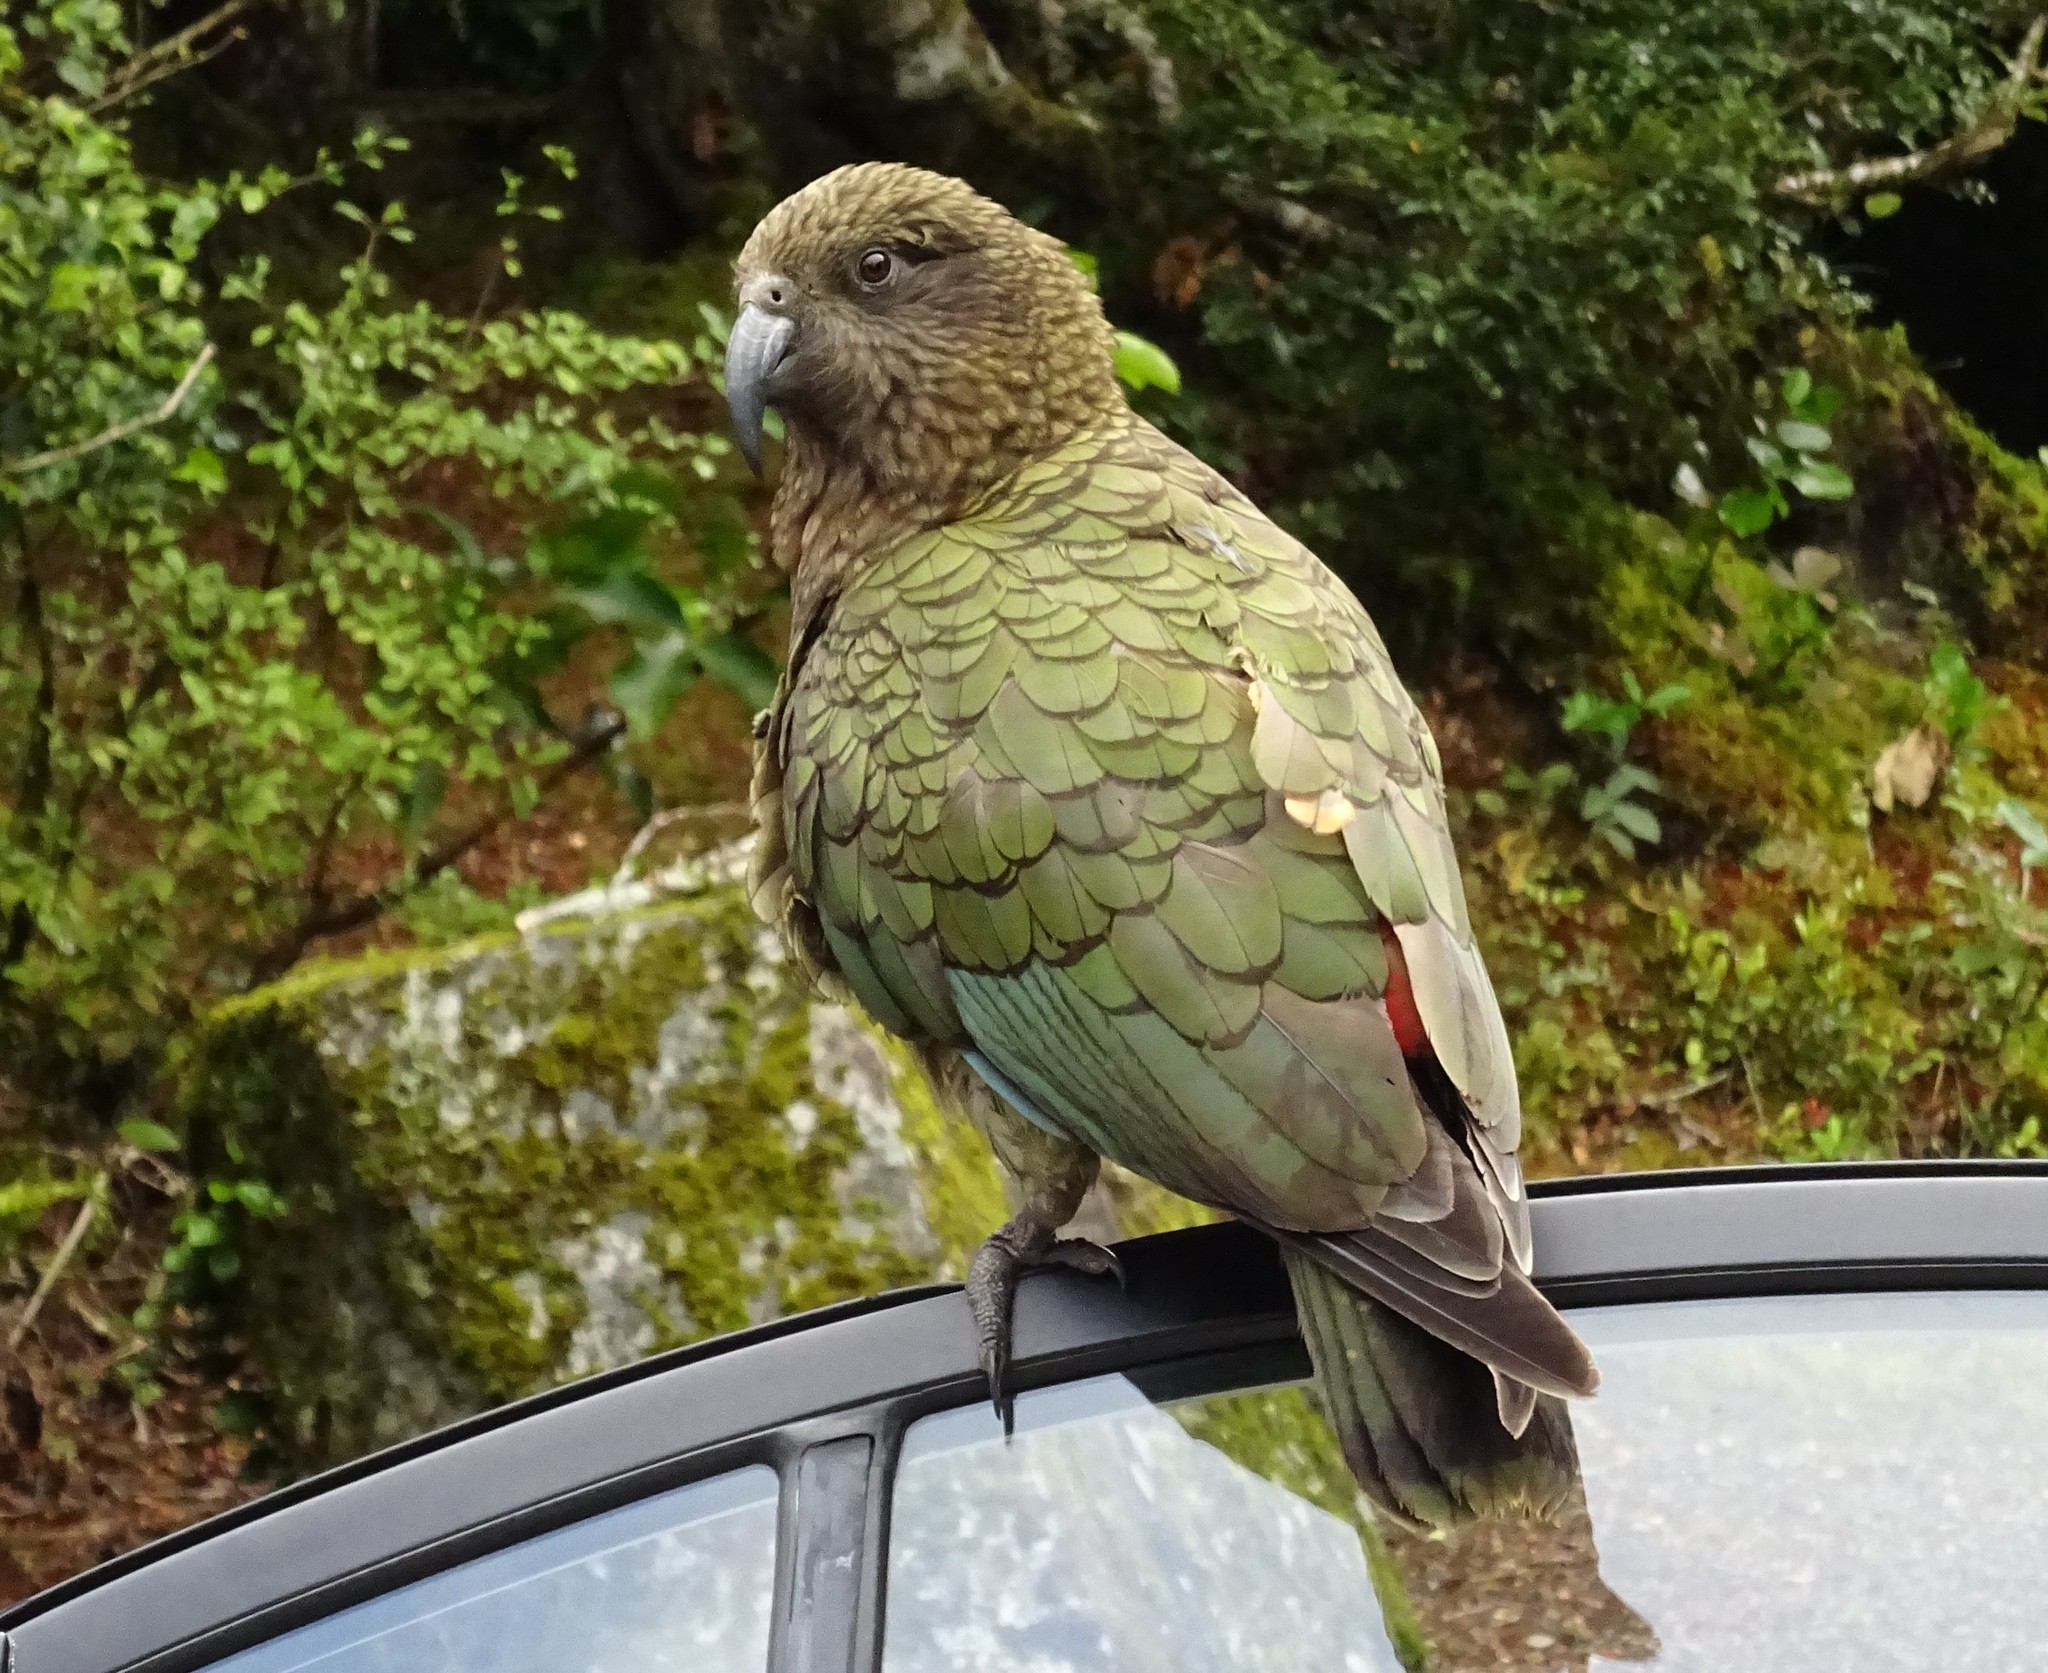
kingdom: Animalia
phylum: Chordata
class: Aves
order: Psittaciformes
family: Psittacidae
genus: Nestor
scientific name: Nestor notabilis
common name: Kea
